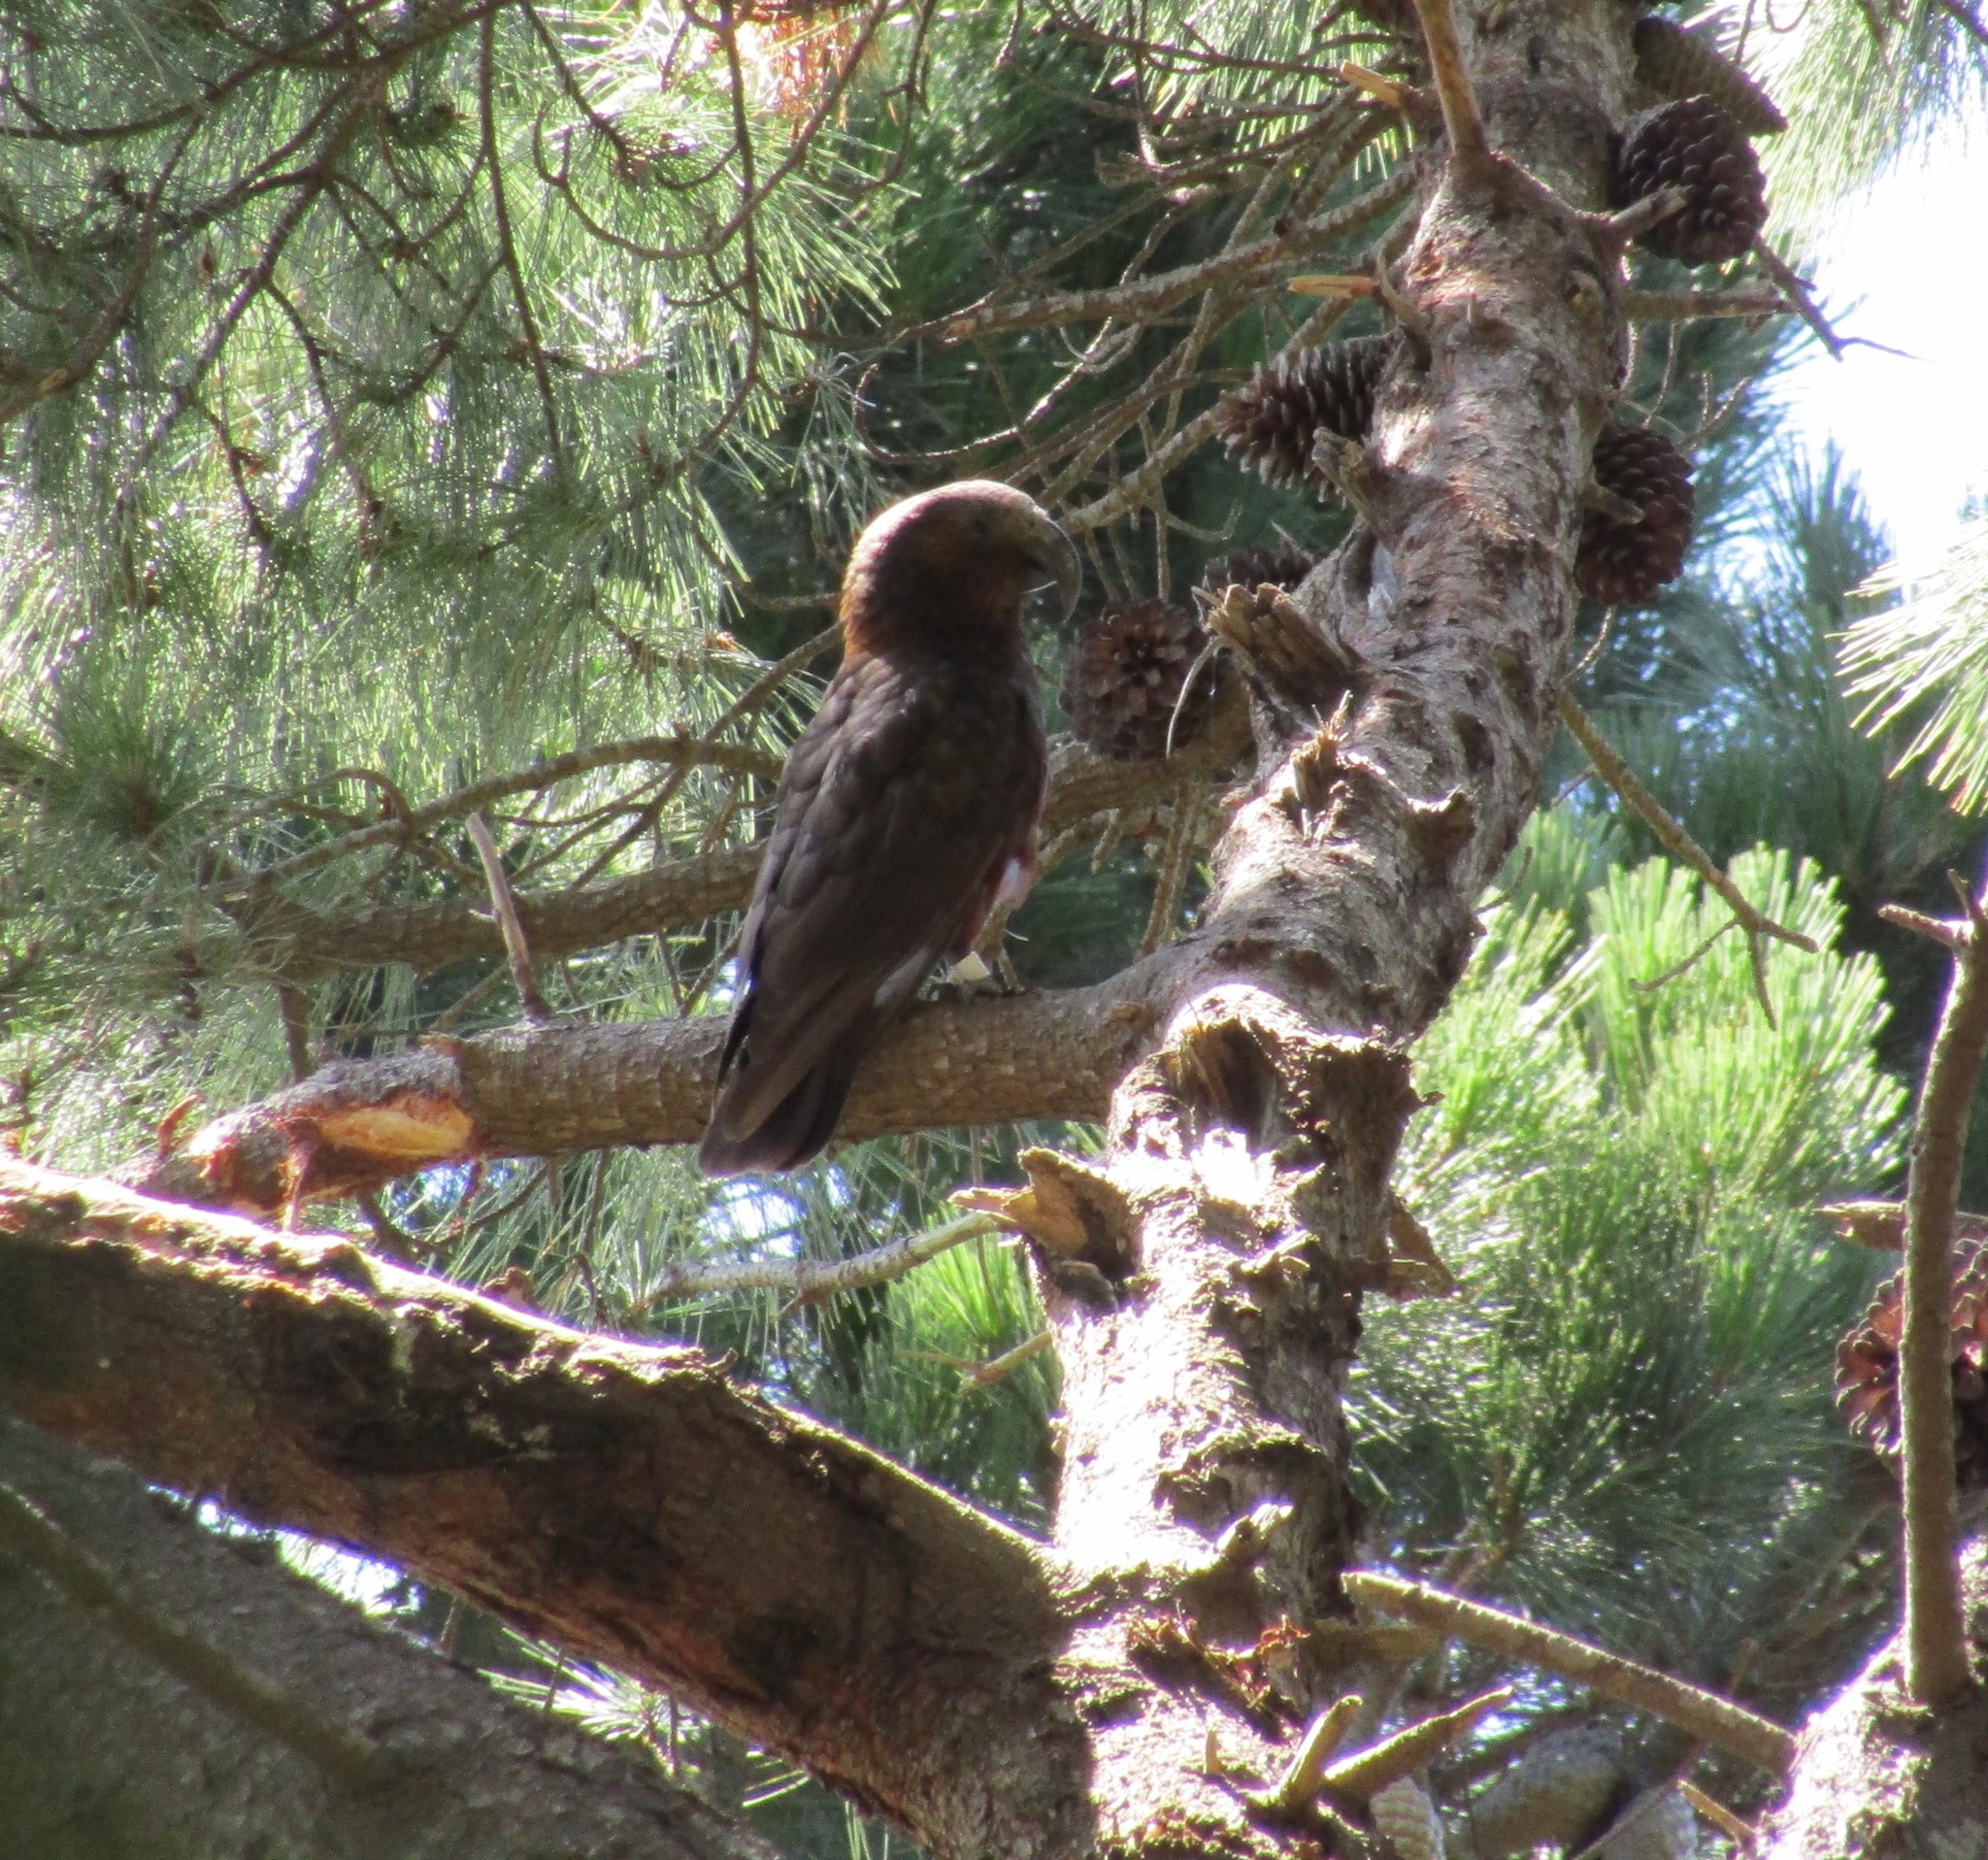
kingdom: Animalia
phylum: Chordata
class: Aves
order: Psittaciformes
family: Psittacidae
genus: Nestor
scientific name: Nestor meridionalis
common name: New zealand kaka
